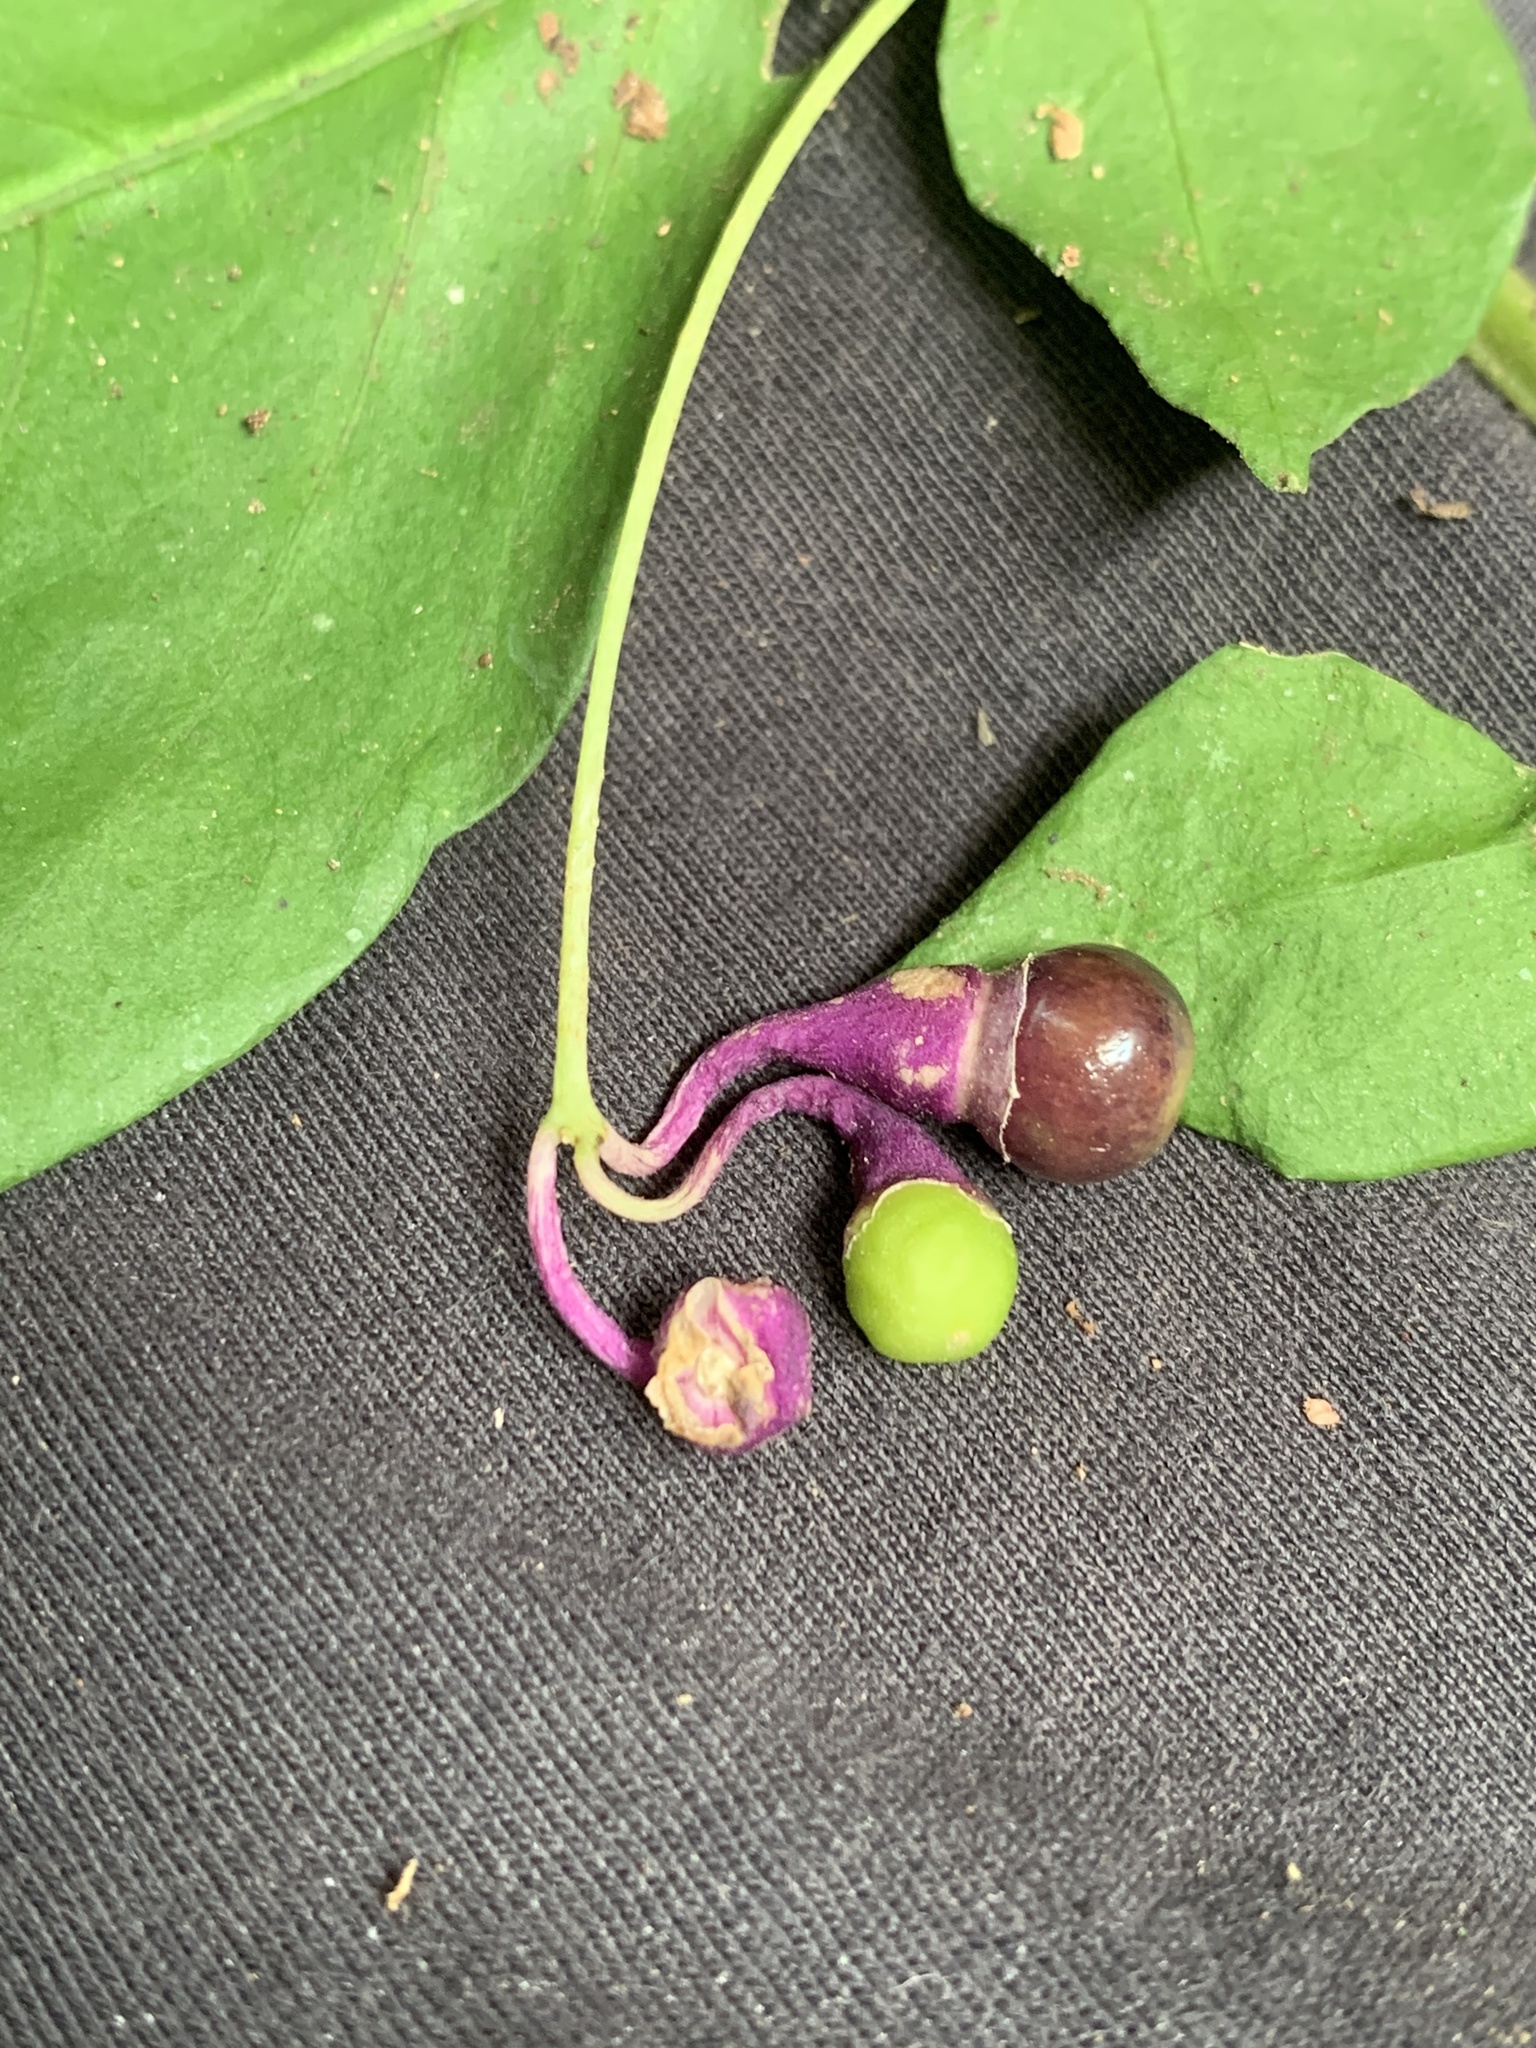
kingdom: Plantae
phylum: Tracheophyta
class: Magnoliopsida
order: Solanales
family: Solanaceae
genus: Cuatresia
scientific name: Cuatresia fosteriana
